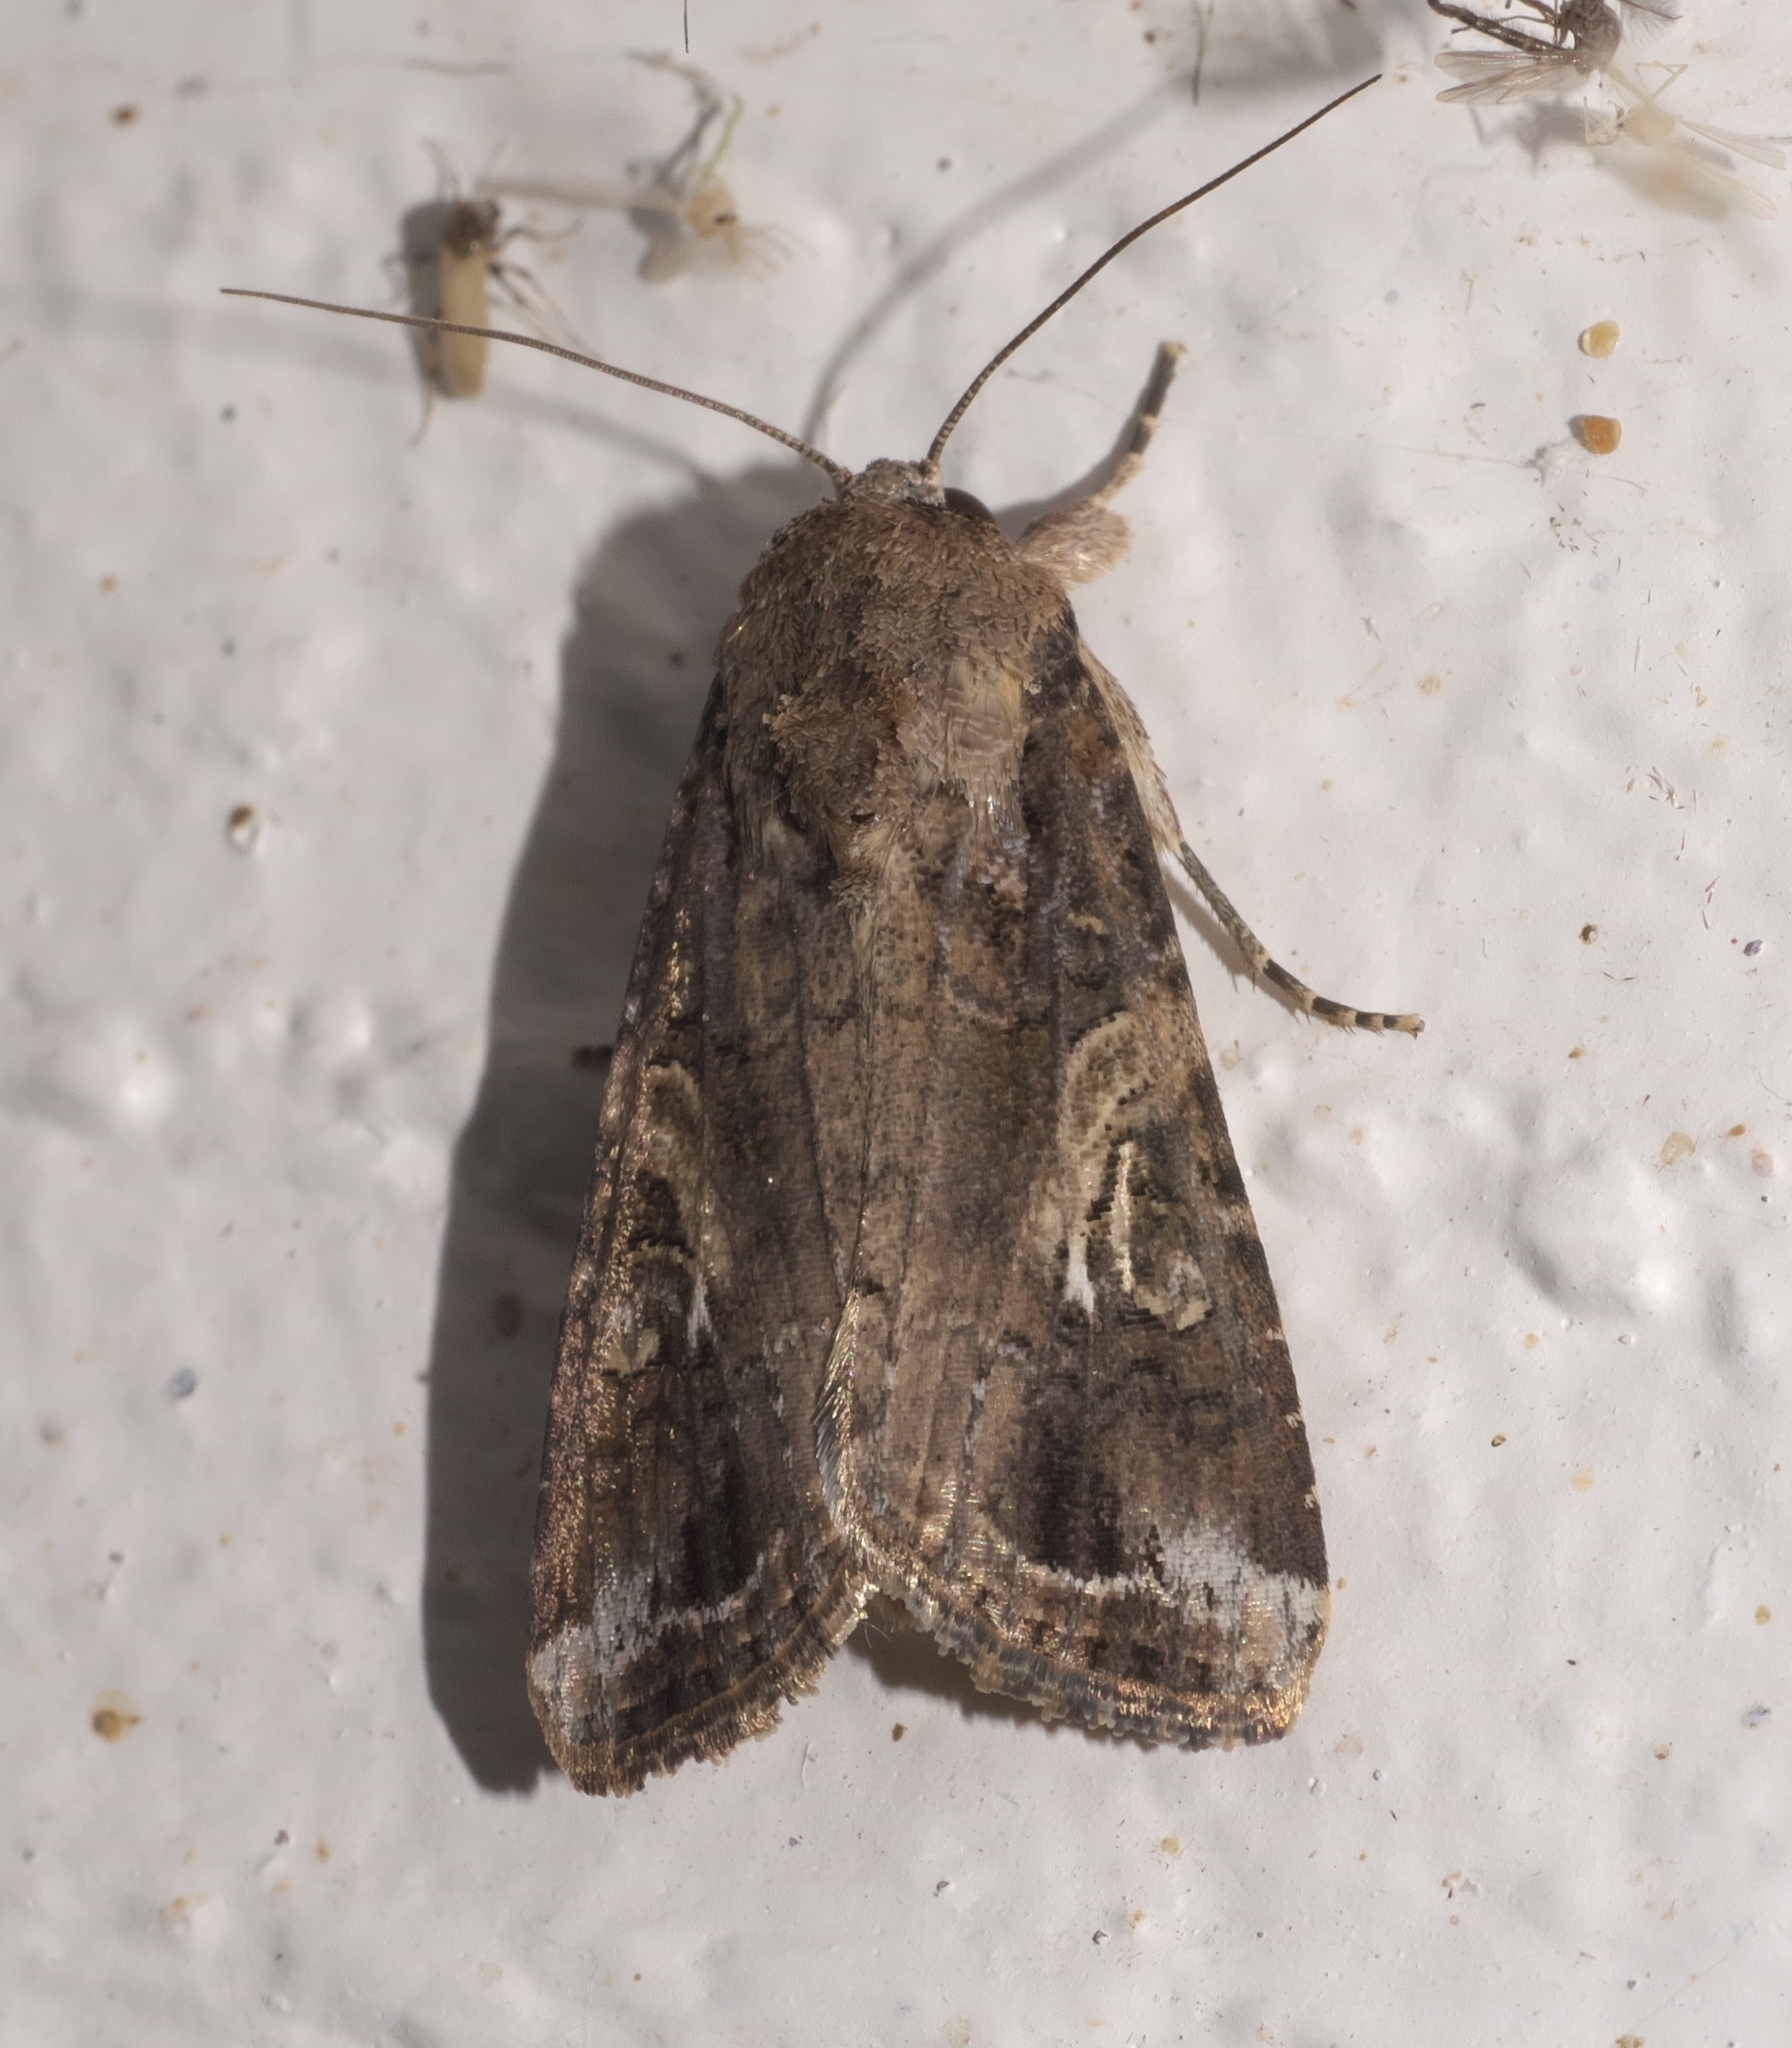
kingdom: Animalia
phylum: Arthropoda
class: Insecta
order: Lepidoptera
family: Noctuidae
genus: Spodoptera
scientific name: Spodoptera frugiperda
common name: Fall armyworm
